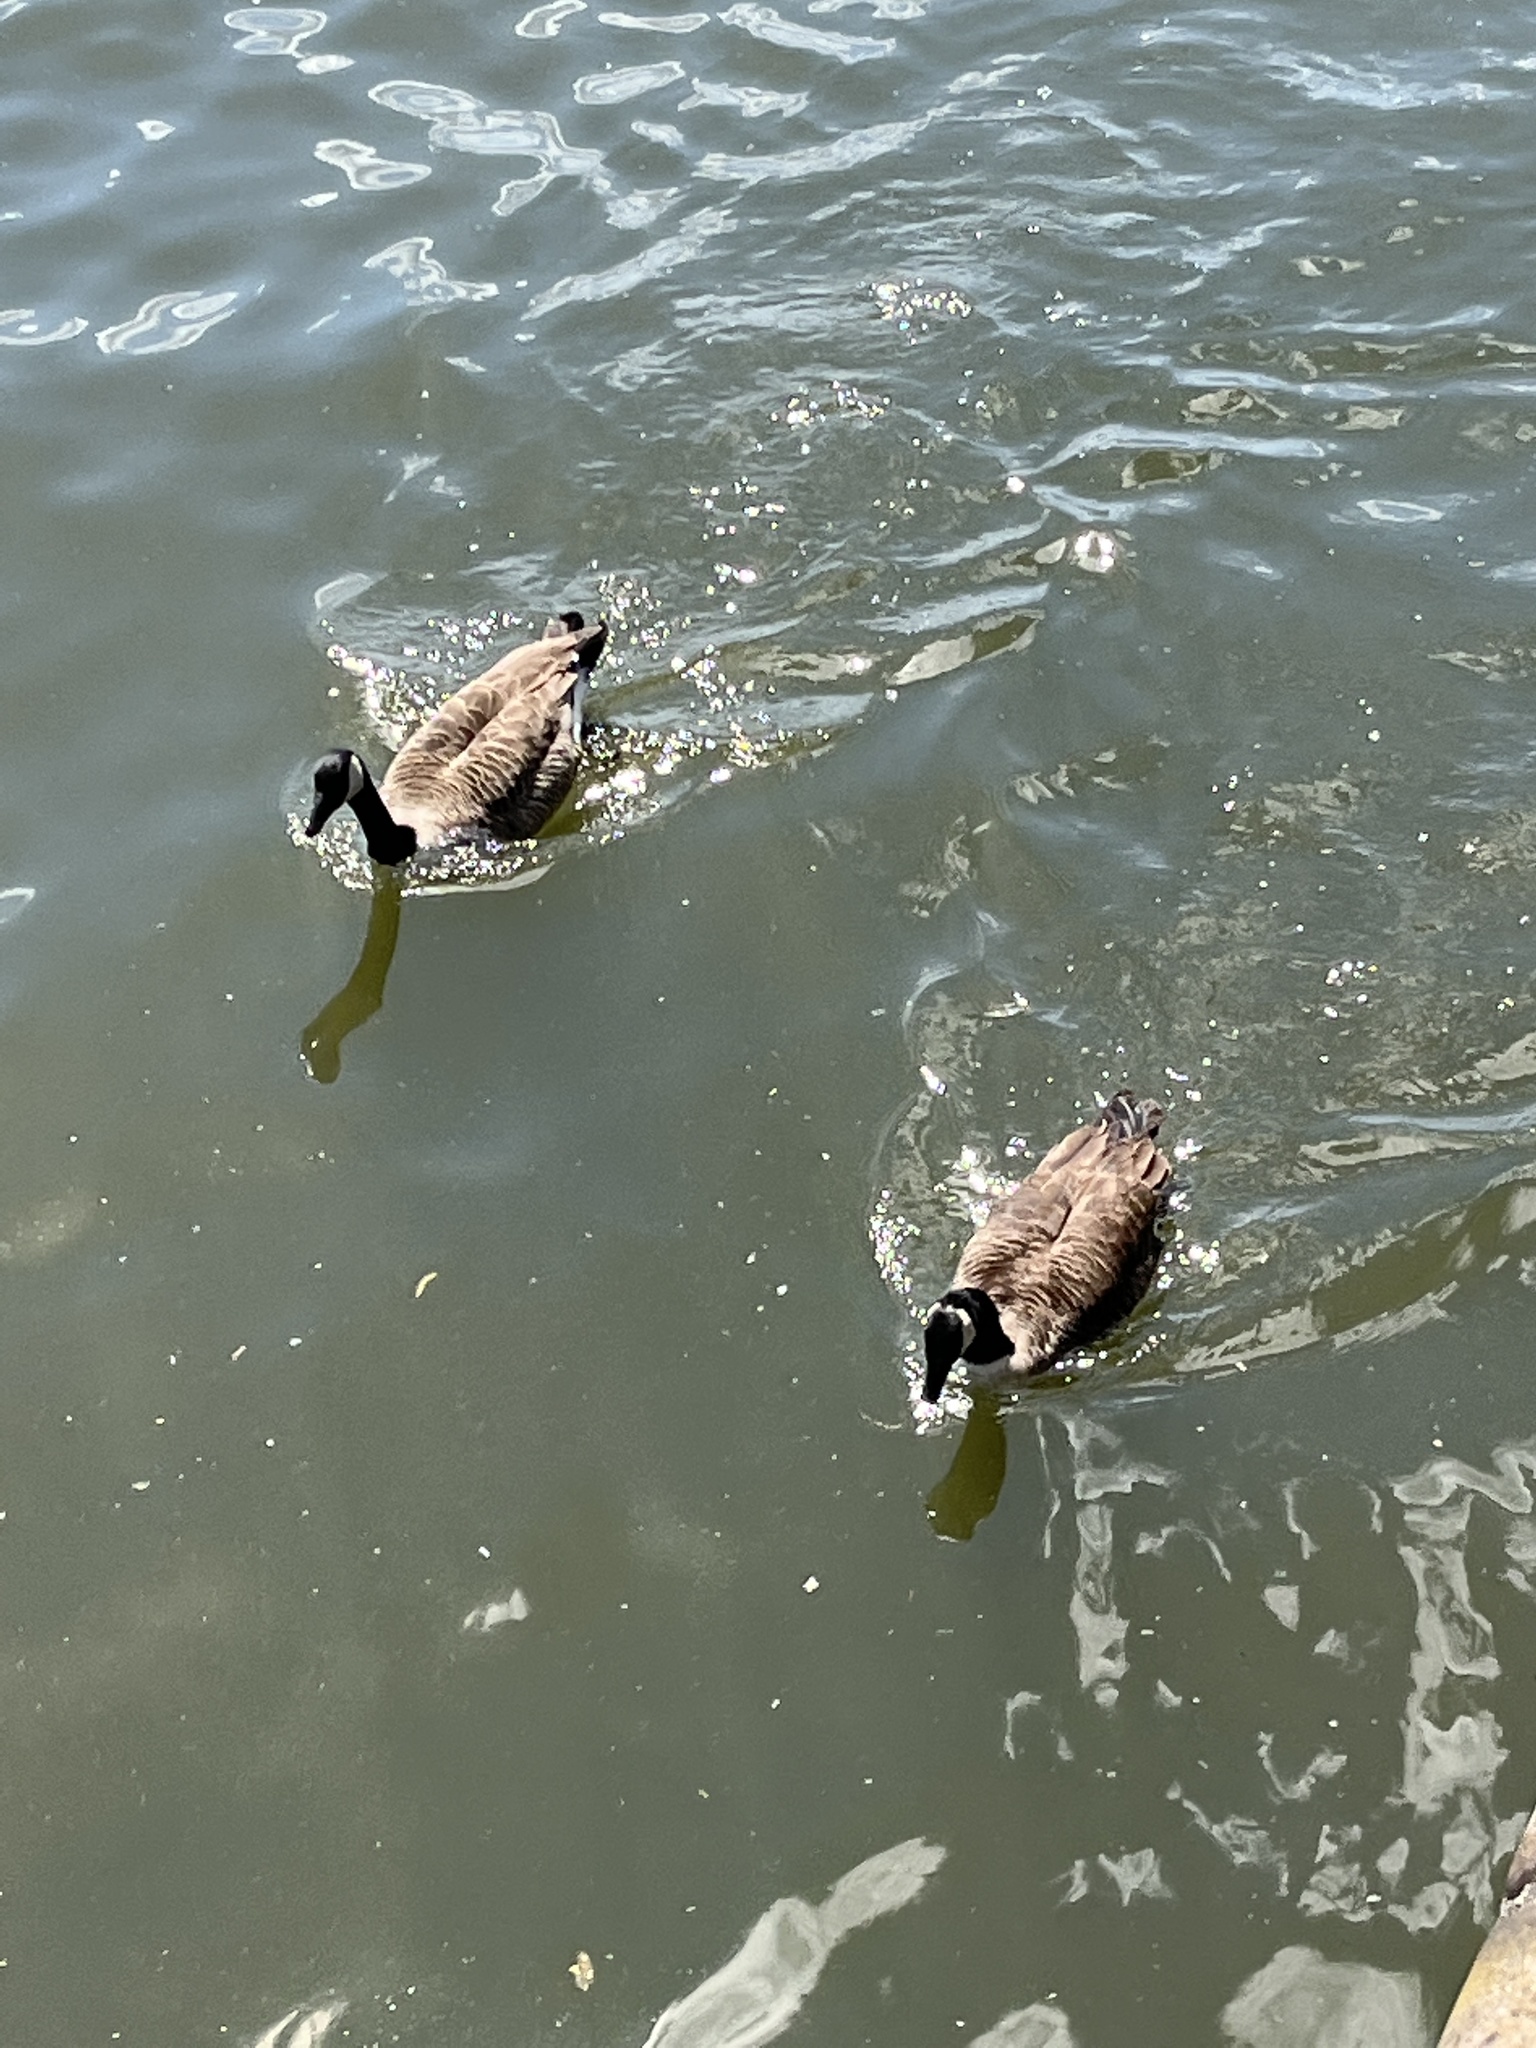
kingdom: Animalia
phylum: Chordata
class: Aves
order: Anseriformes
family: Anatidae
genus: Branta
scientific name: Branta canadensis
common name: Canada goose
